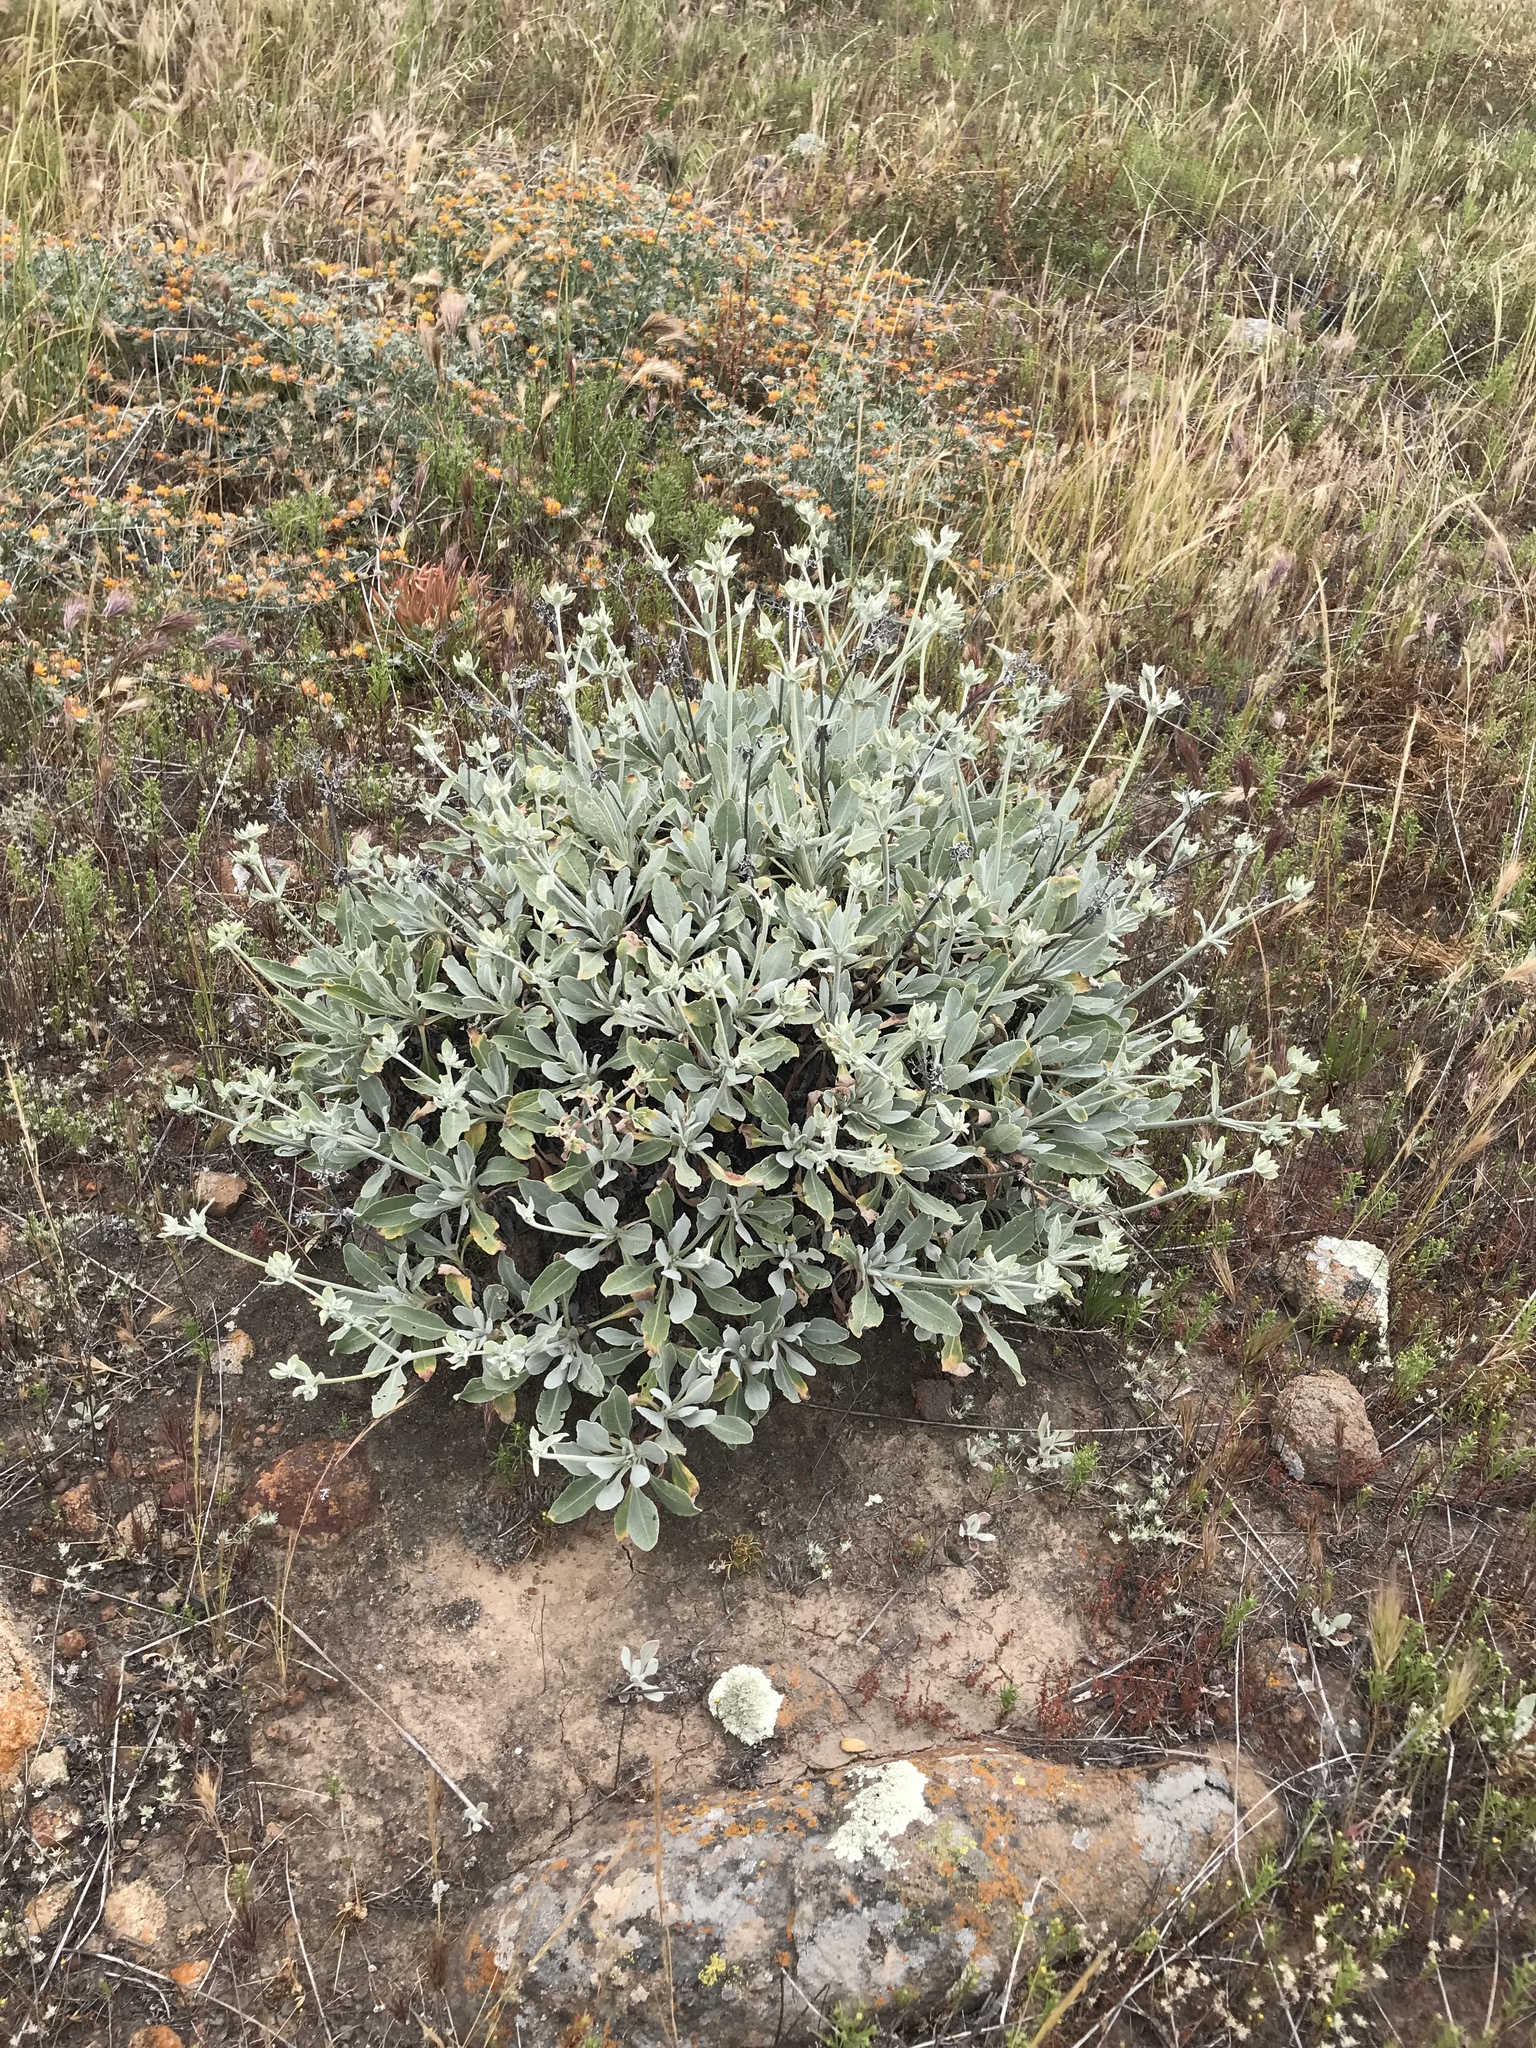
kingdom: Plantae
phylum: Tracheophyta
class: Magnoliopsida
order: Caryophyllales
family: Polygonaceae
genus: Eriogonum
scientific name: Eriogonum giganteum
